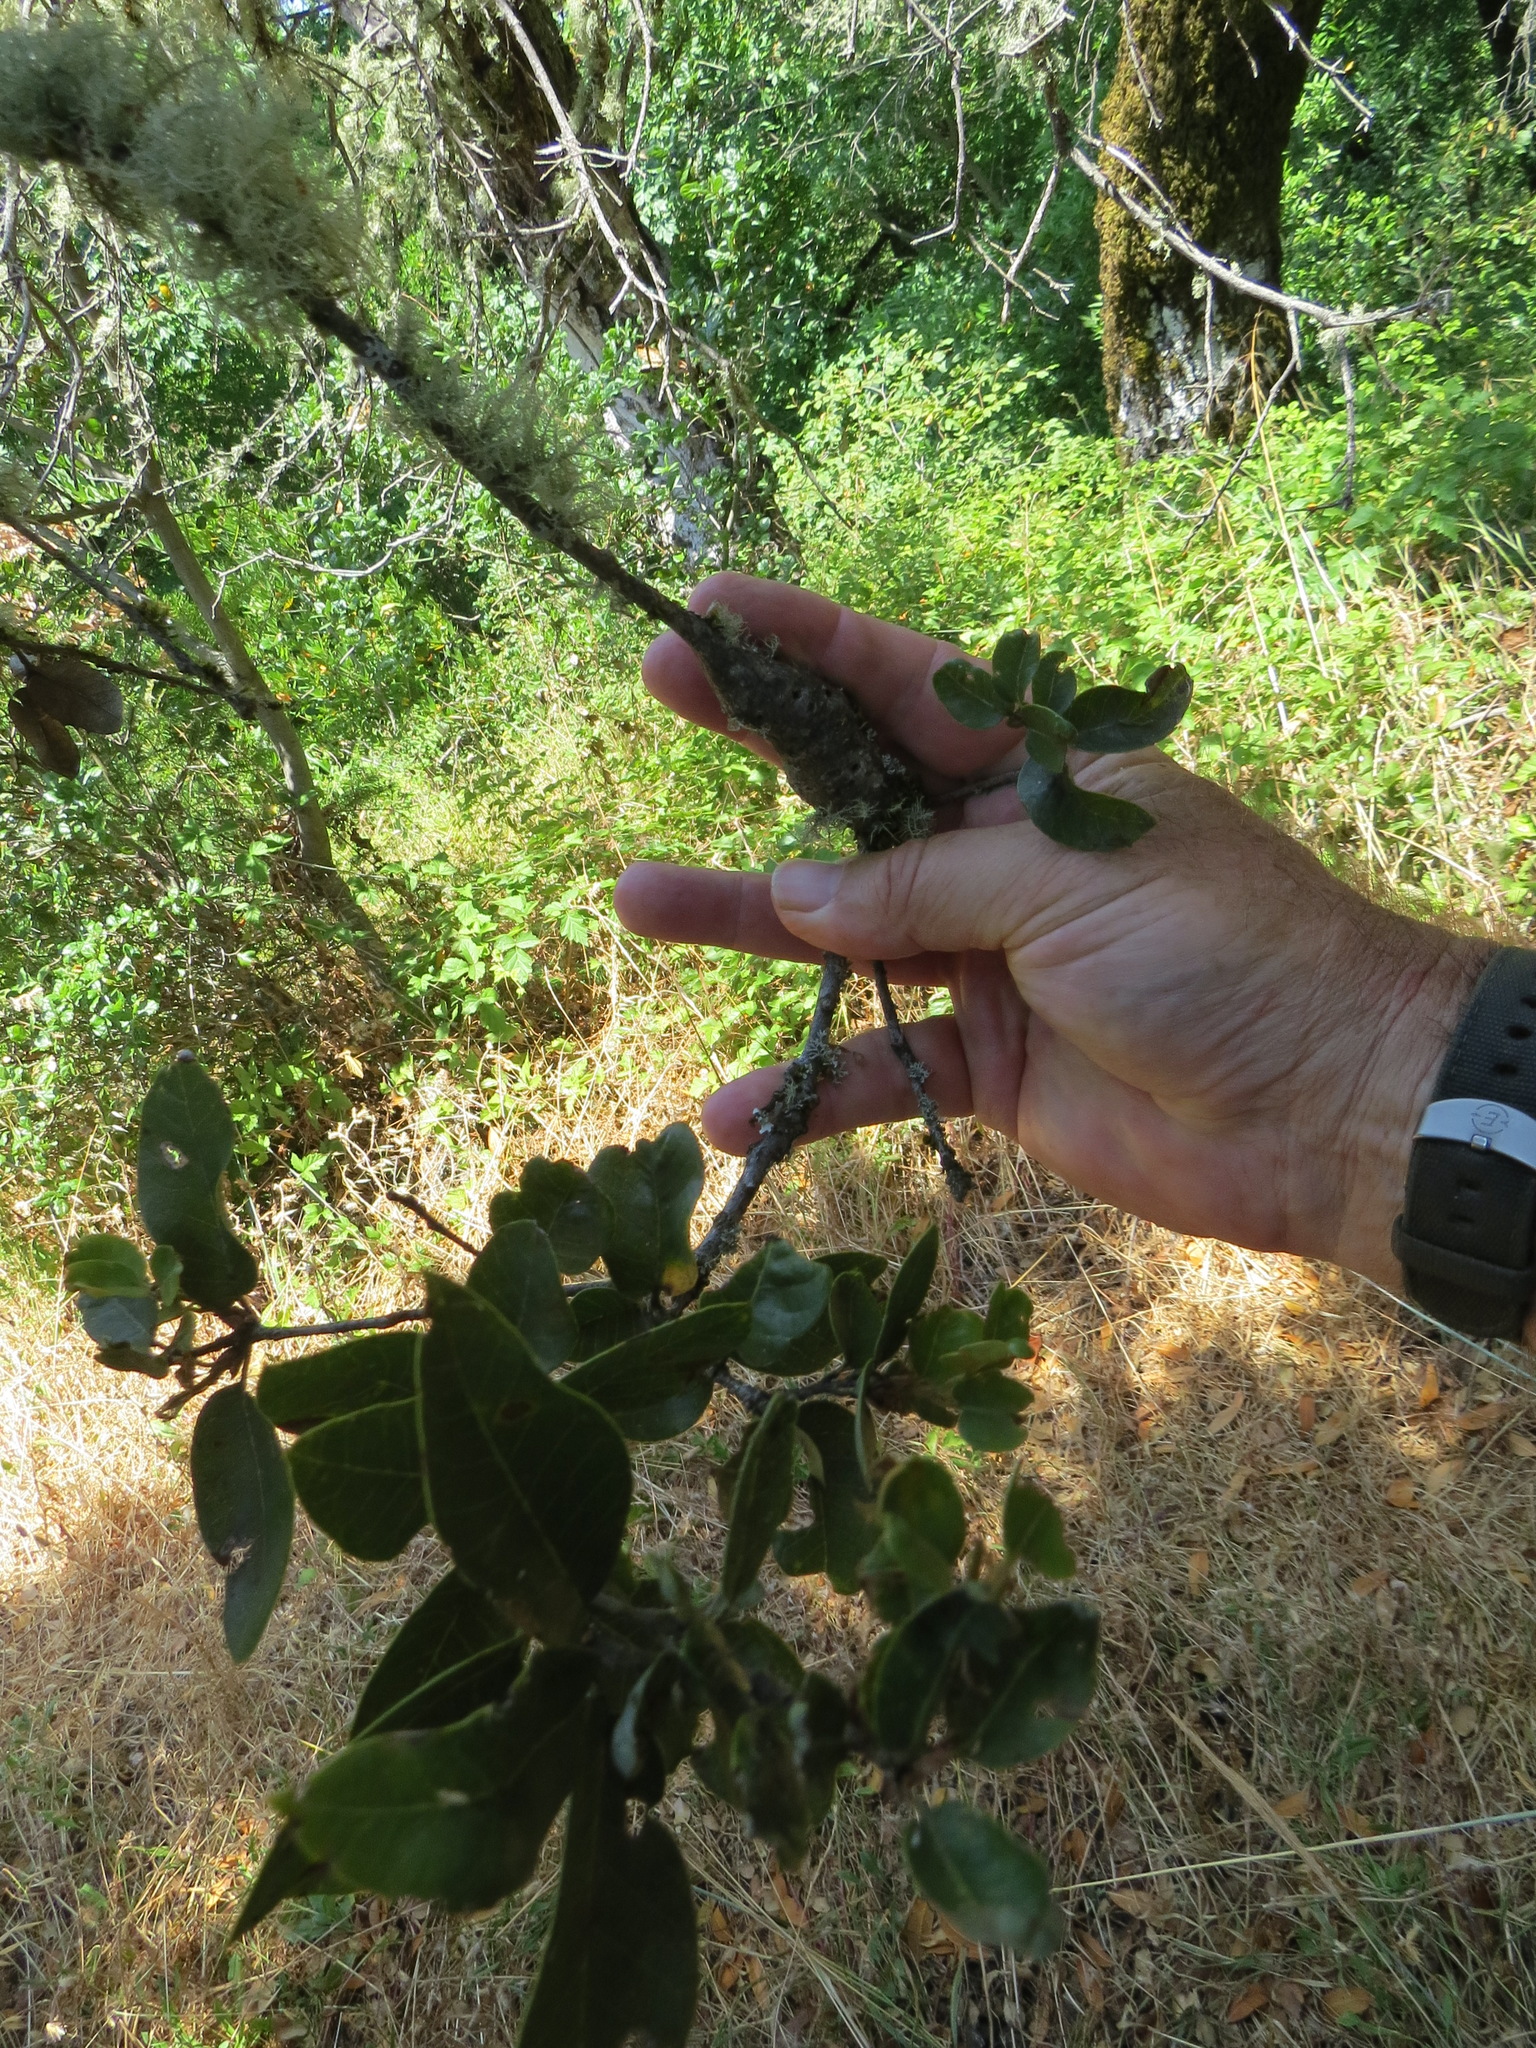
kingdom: Animalia
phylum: Arthropoda
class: Insecta
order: Hymenoptera
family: Cynipidae
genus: Disholcaspis
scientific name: Disholcaspis spectabilis
